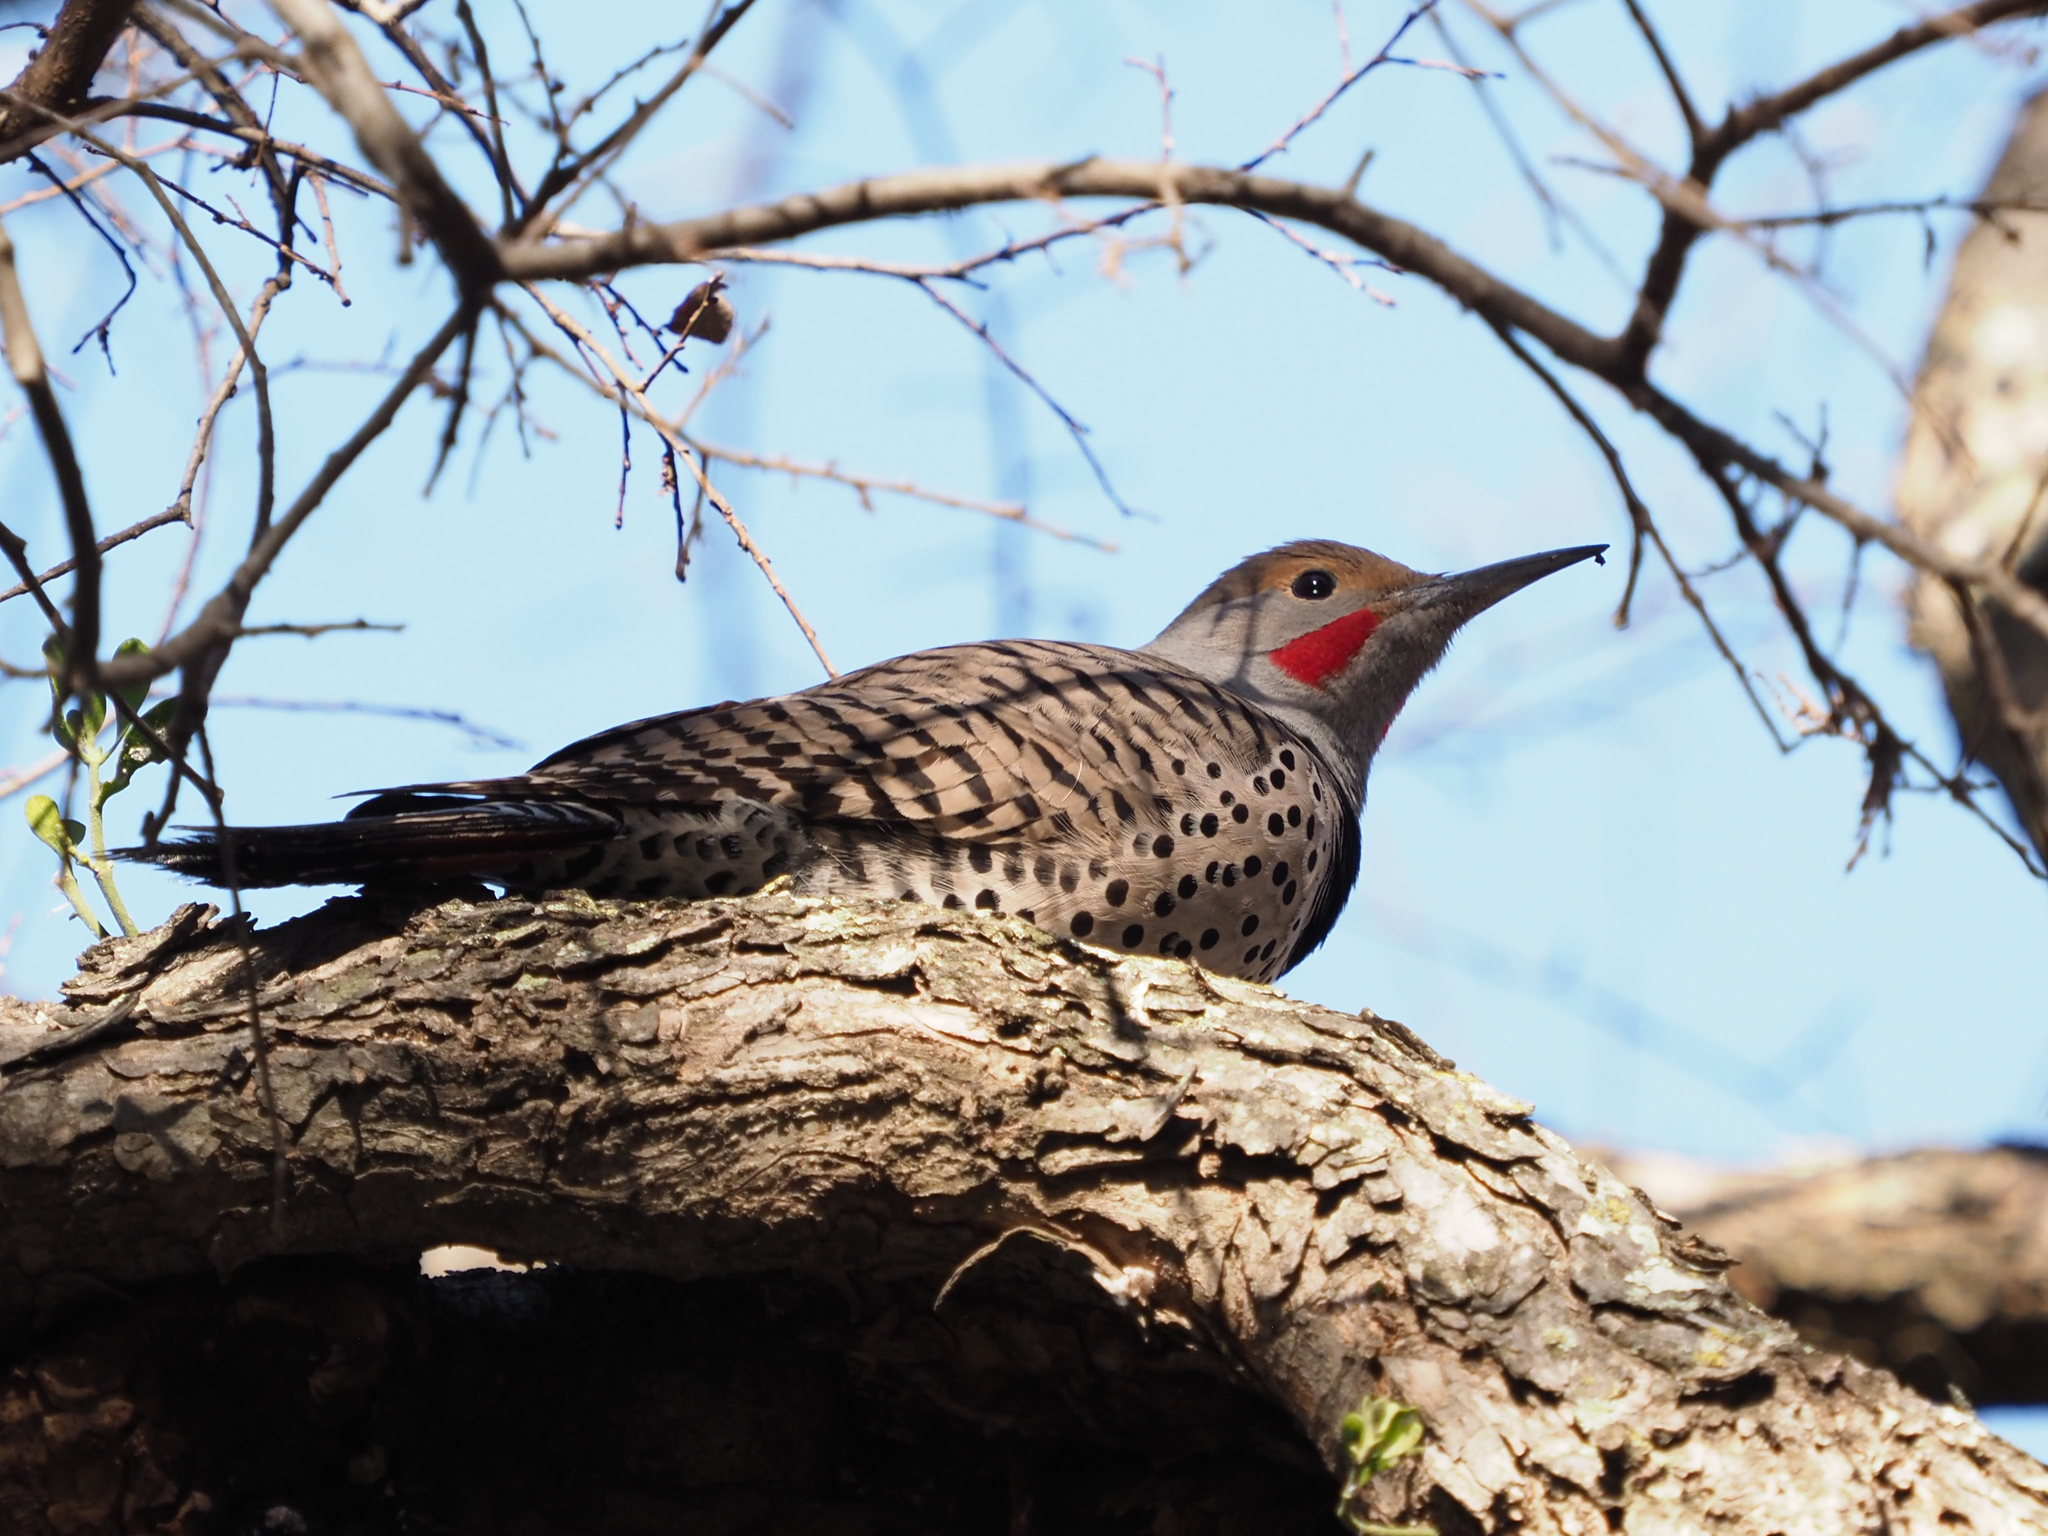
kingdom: Animalia
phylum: Chordata
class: Aves
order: Piciformes
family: Picidae
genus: Colaptes
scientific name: Colaptes auratus
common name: Northern flicker
